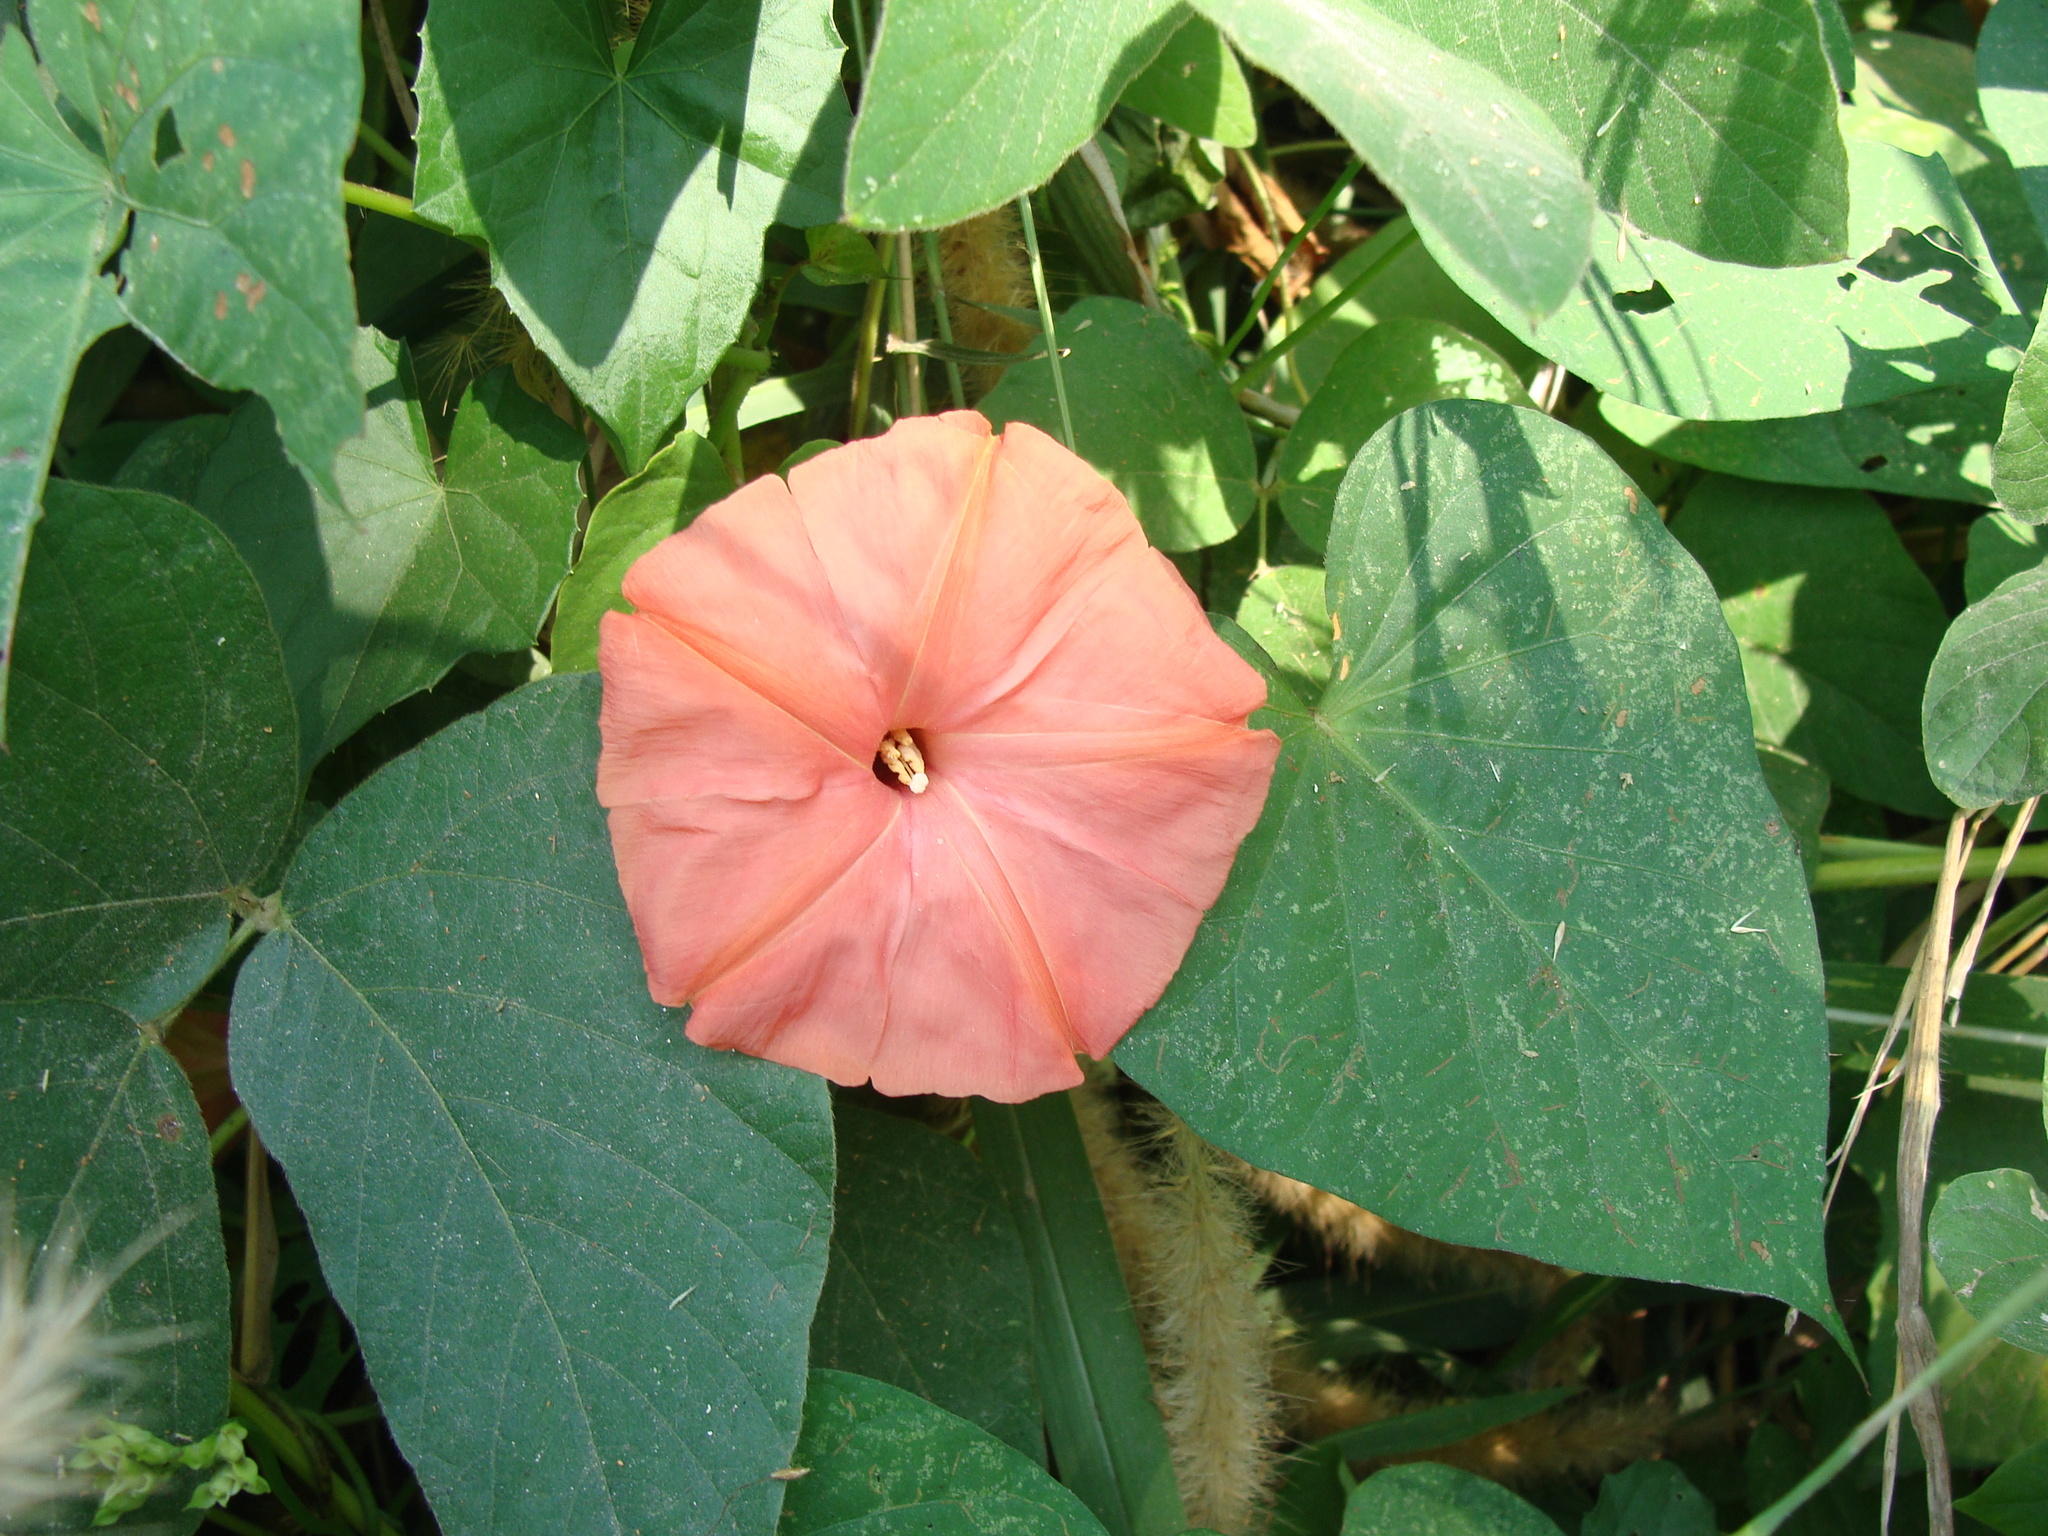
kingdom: Plantae
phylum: Tracheophyta
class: Magnoliopsida
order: Solanales
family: Convolvulaceae
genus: Operculina
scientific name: Operculina pteripes
